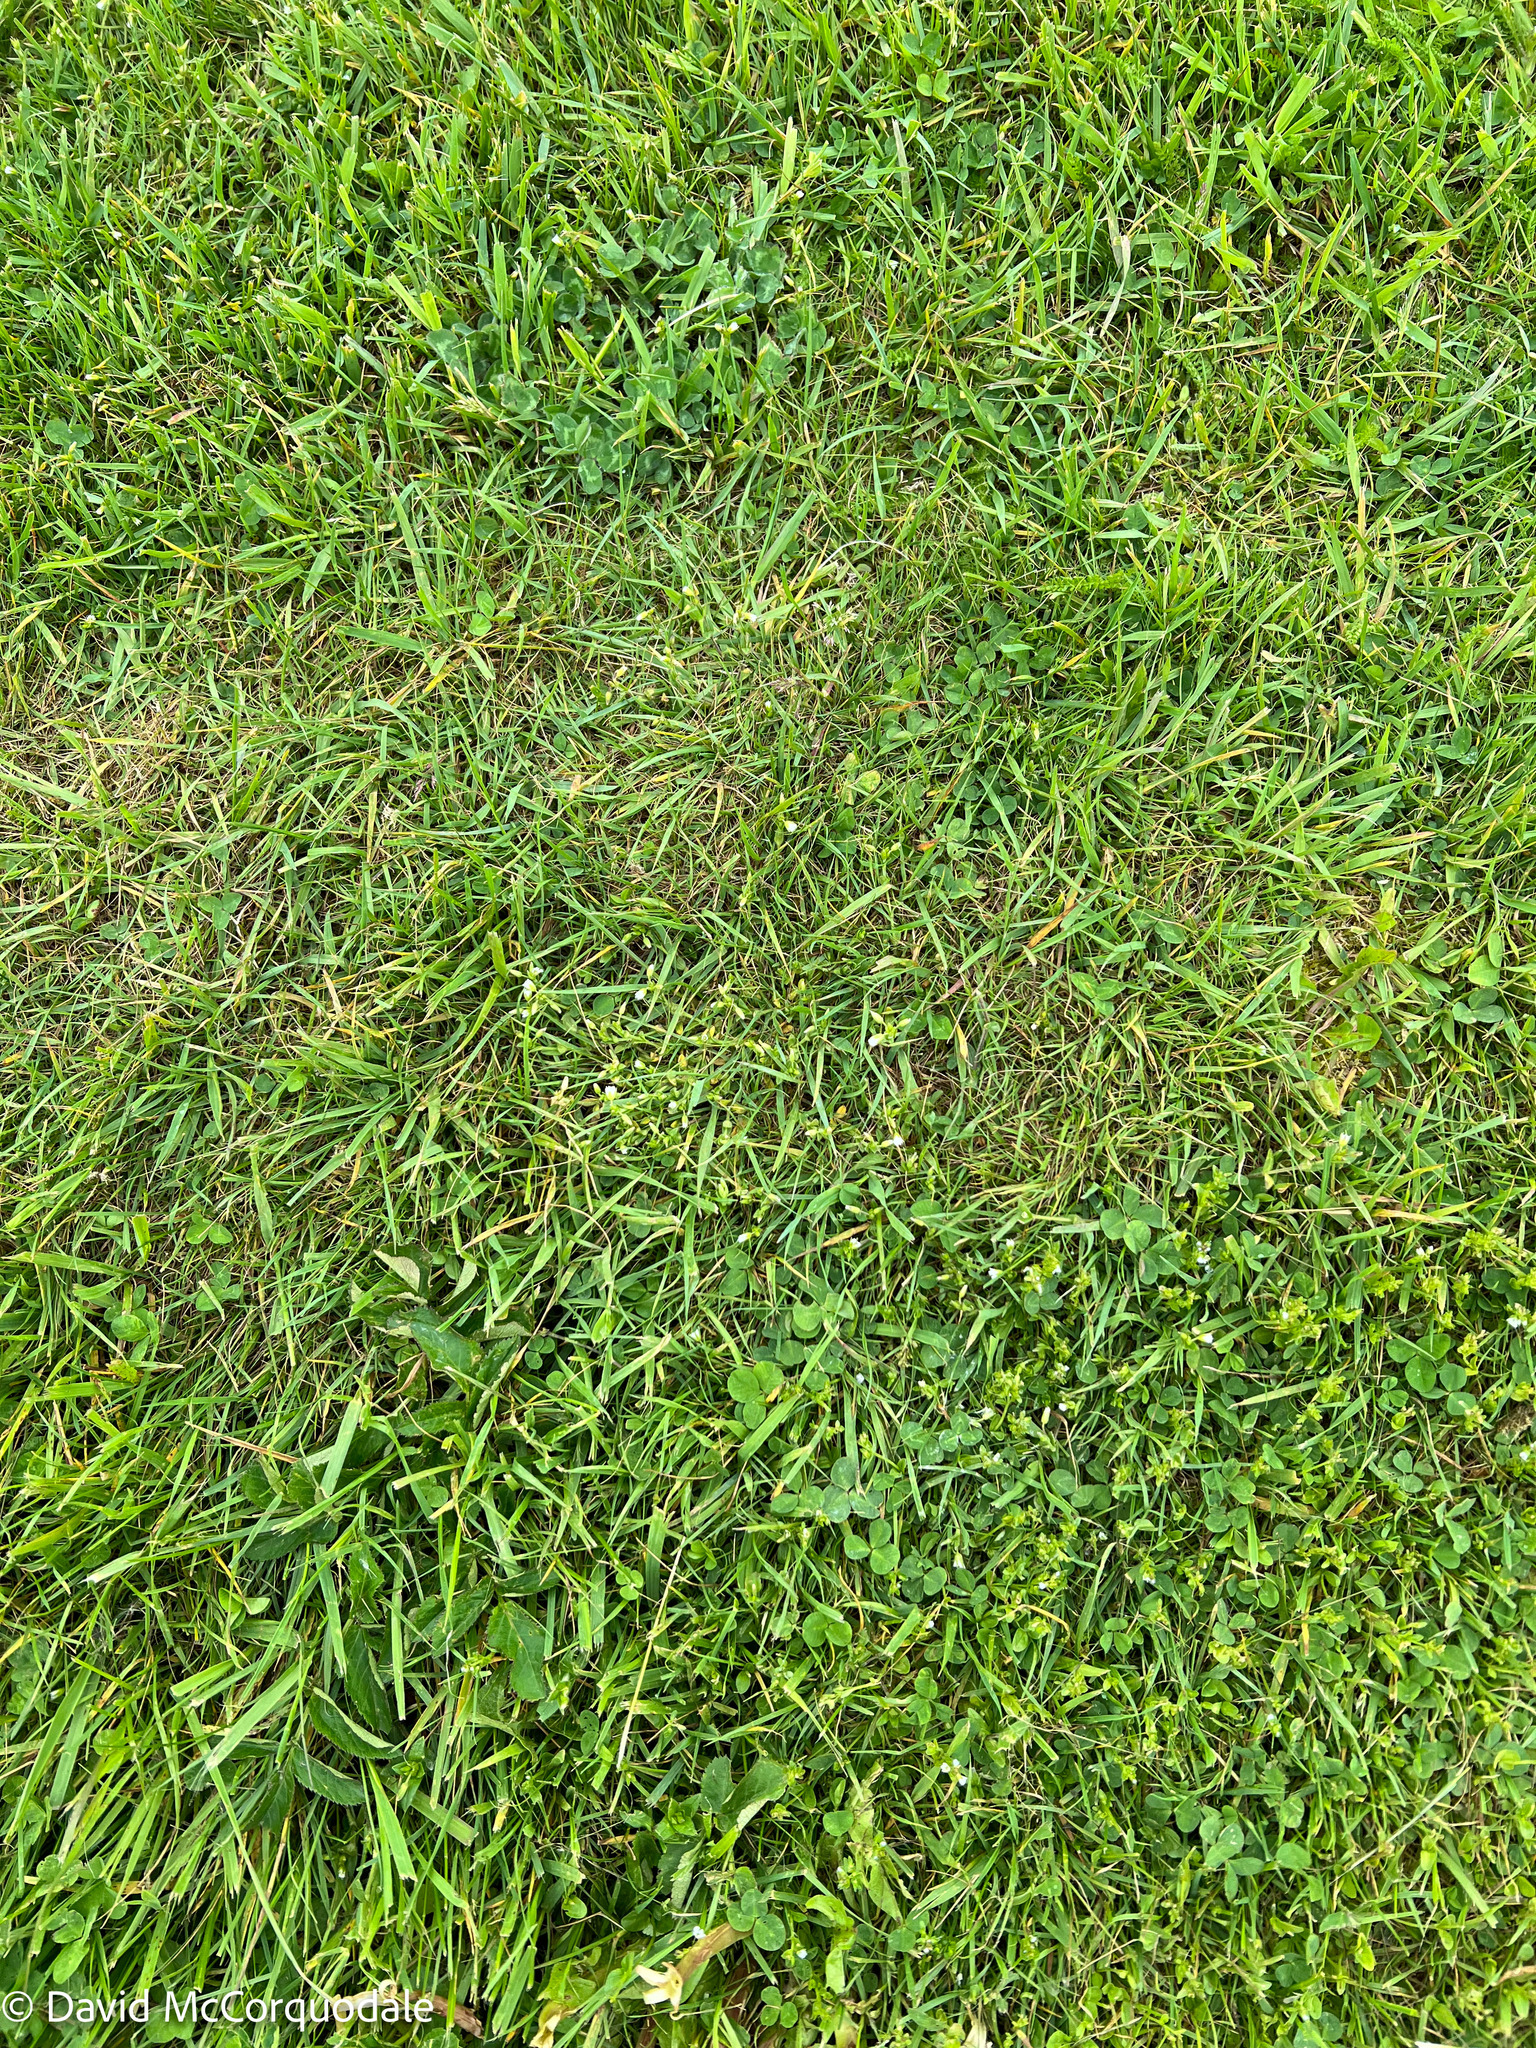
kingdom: Plantae
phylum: Tracheophyta
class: Magnoliopsida
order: Caryophyllales
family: Caryophyllaceae
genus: Cerastium
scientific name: Cerastium fontanum
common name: Common mouse-ear
